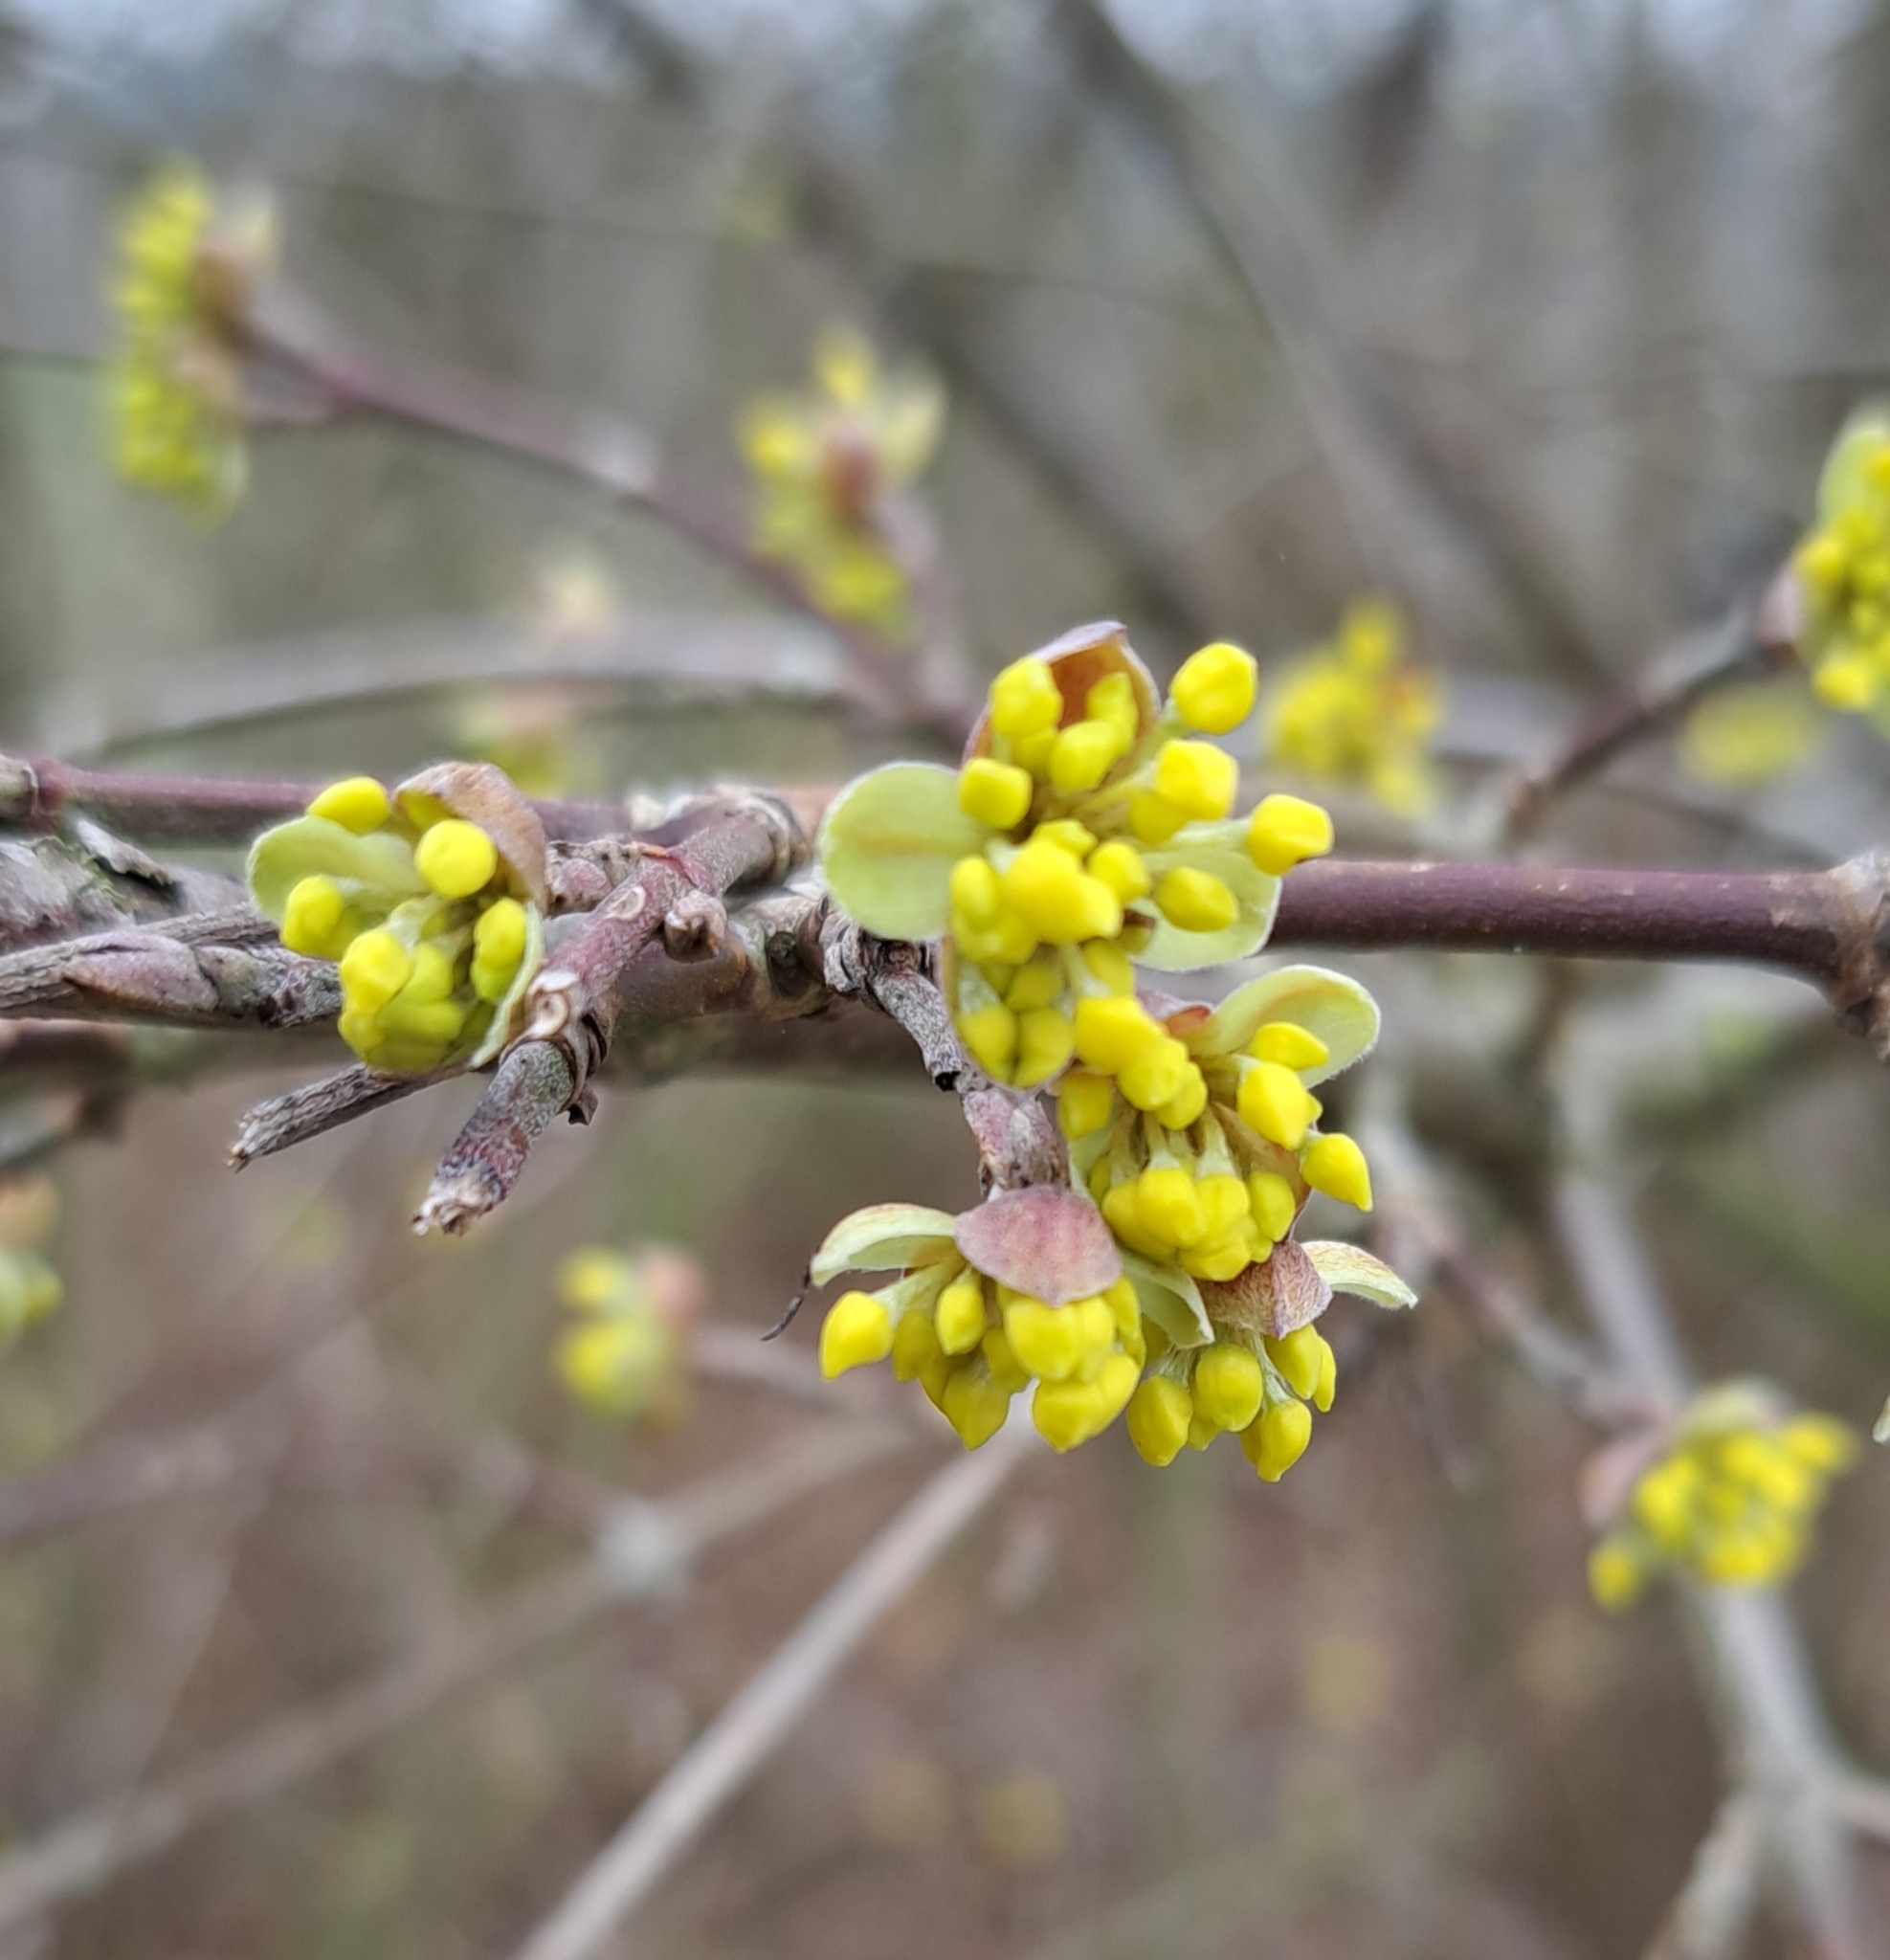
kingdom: Plantae
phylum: Tracheophyta
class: Magnoliopsida
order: Cornales
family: Cornaceae
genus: Cornus
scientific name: Cornus mas
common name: Cornelian-cherry
